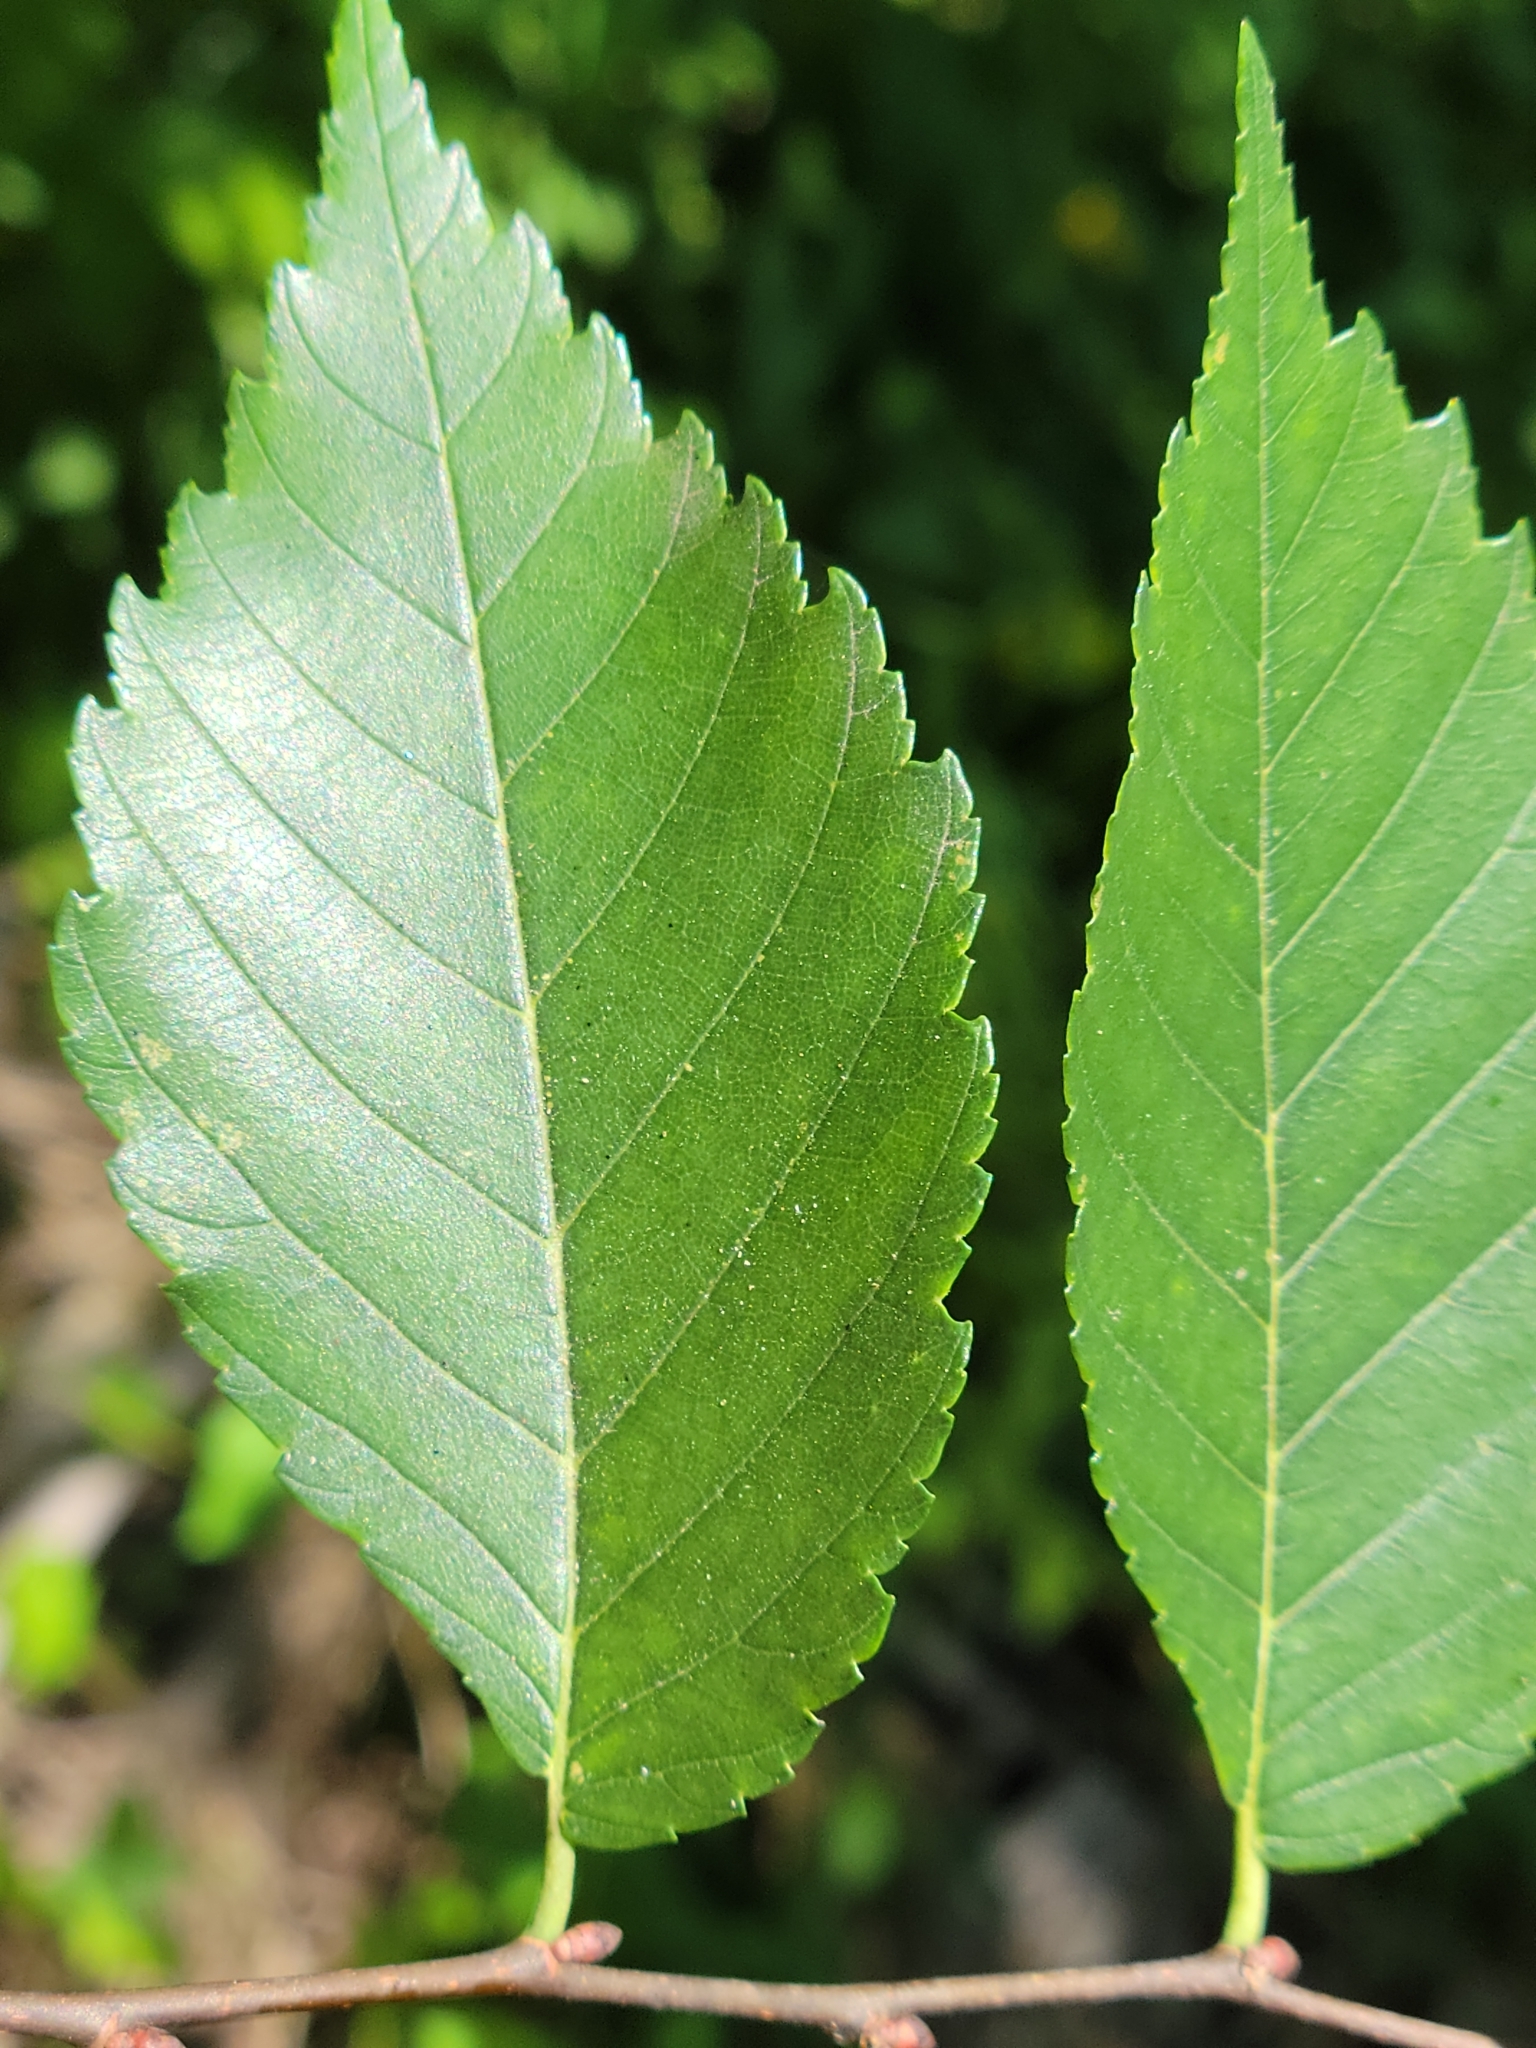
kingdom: Plantae
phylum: Tracheophyta
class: Magnoliopsida
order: Rosales
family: Ulmaceae
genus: Ulmus
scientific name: Ulmus americana
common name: American elm
